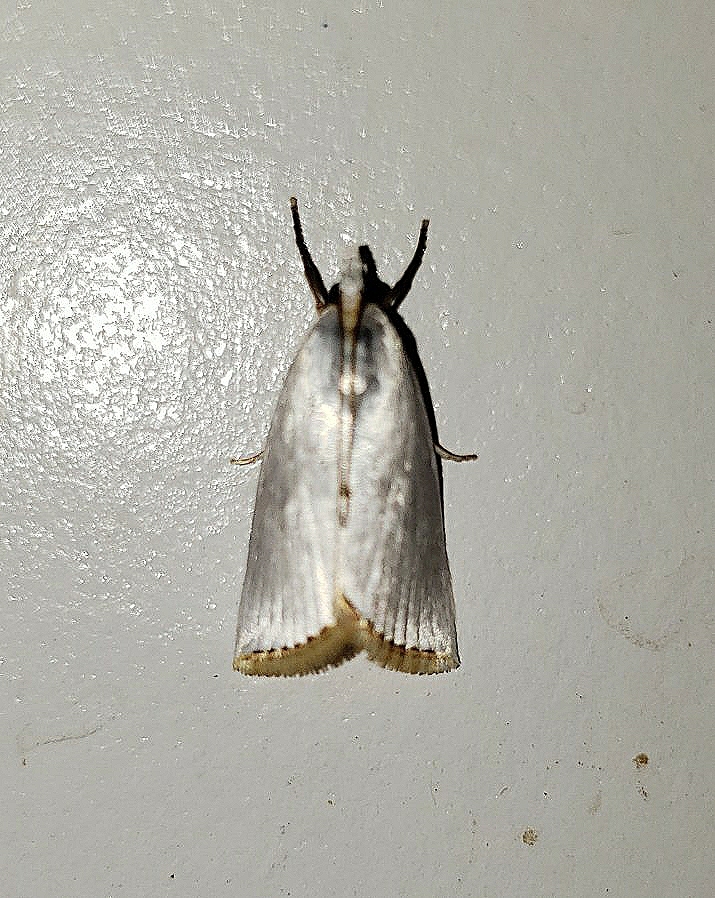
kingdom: Animalia
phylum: Arthropoda
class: Insecta
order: Lepidoptera
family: Crambidae
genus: Argyria
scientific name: Argyria nivalis
